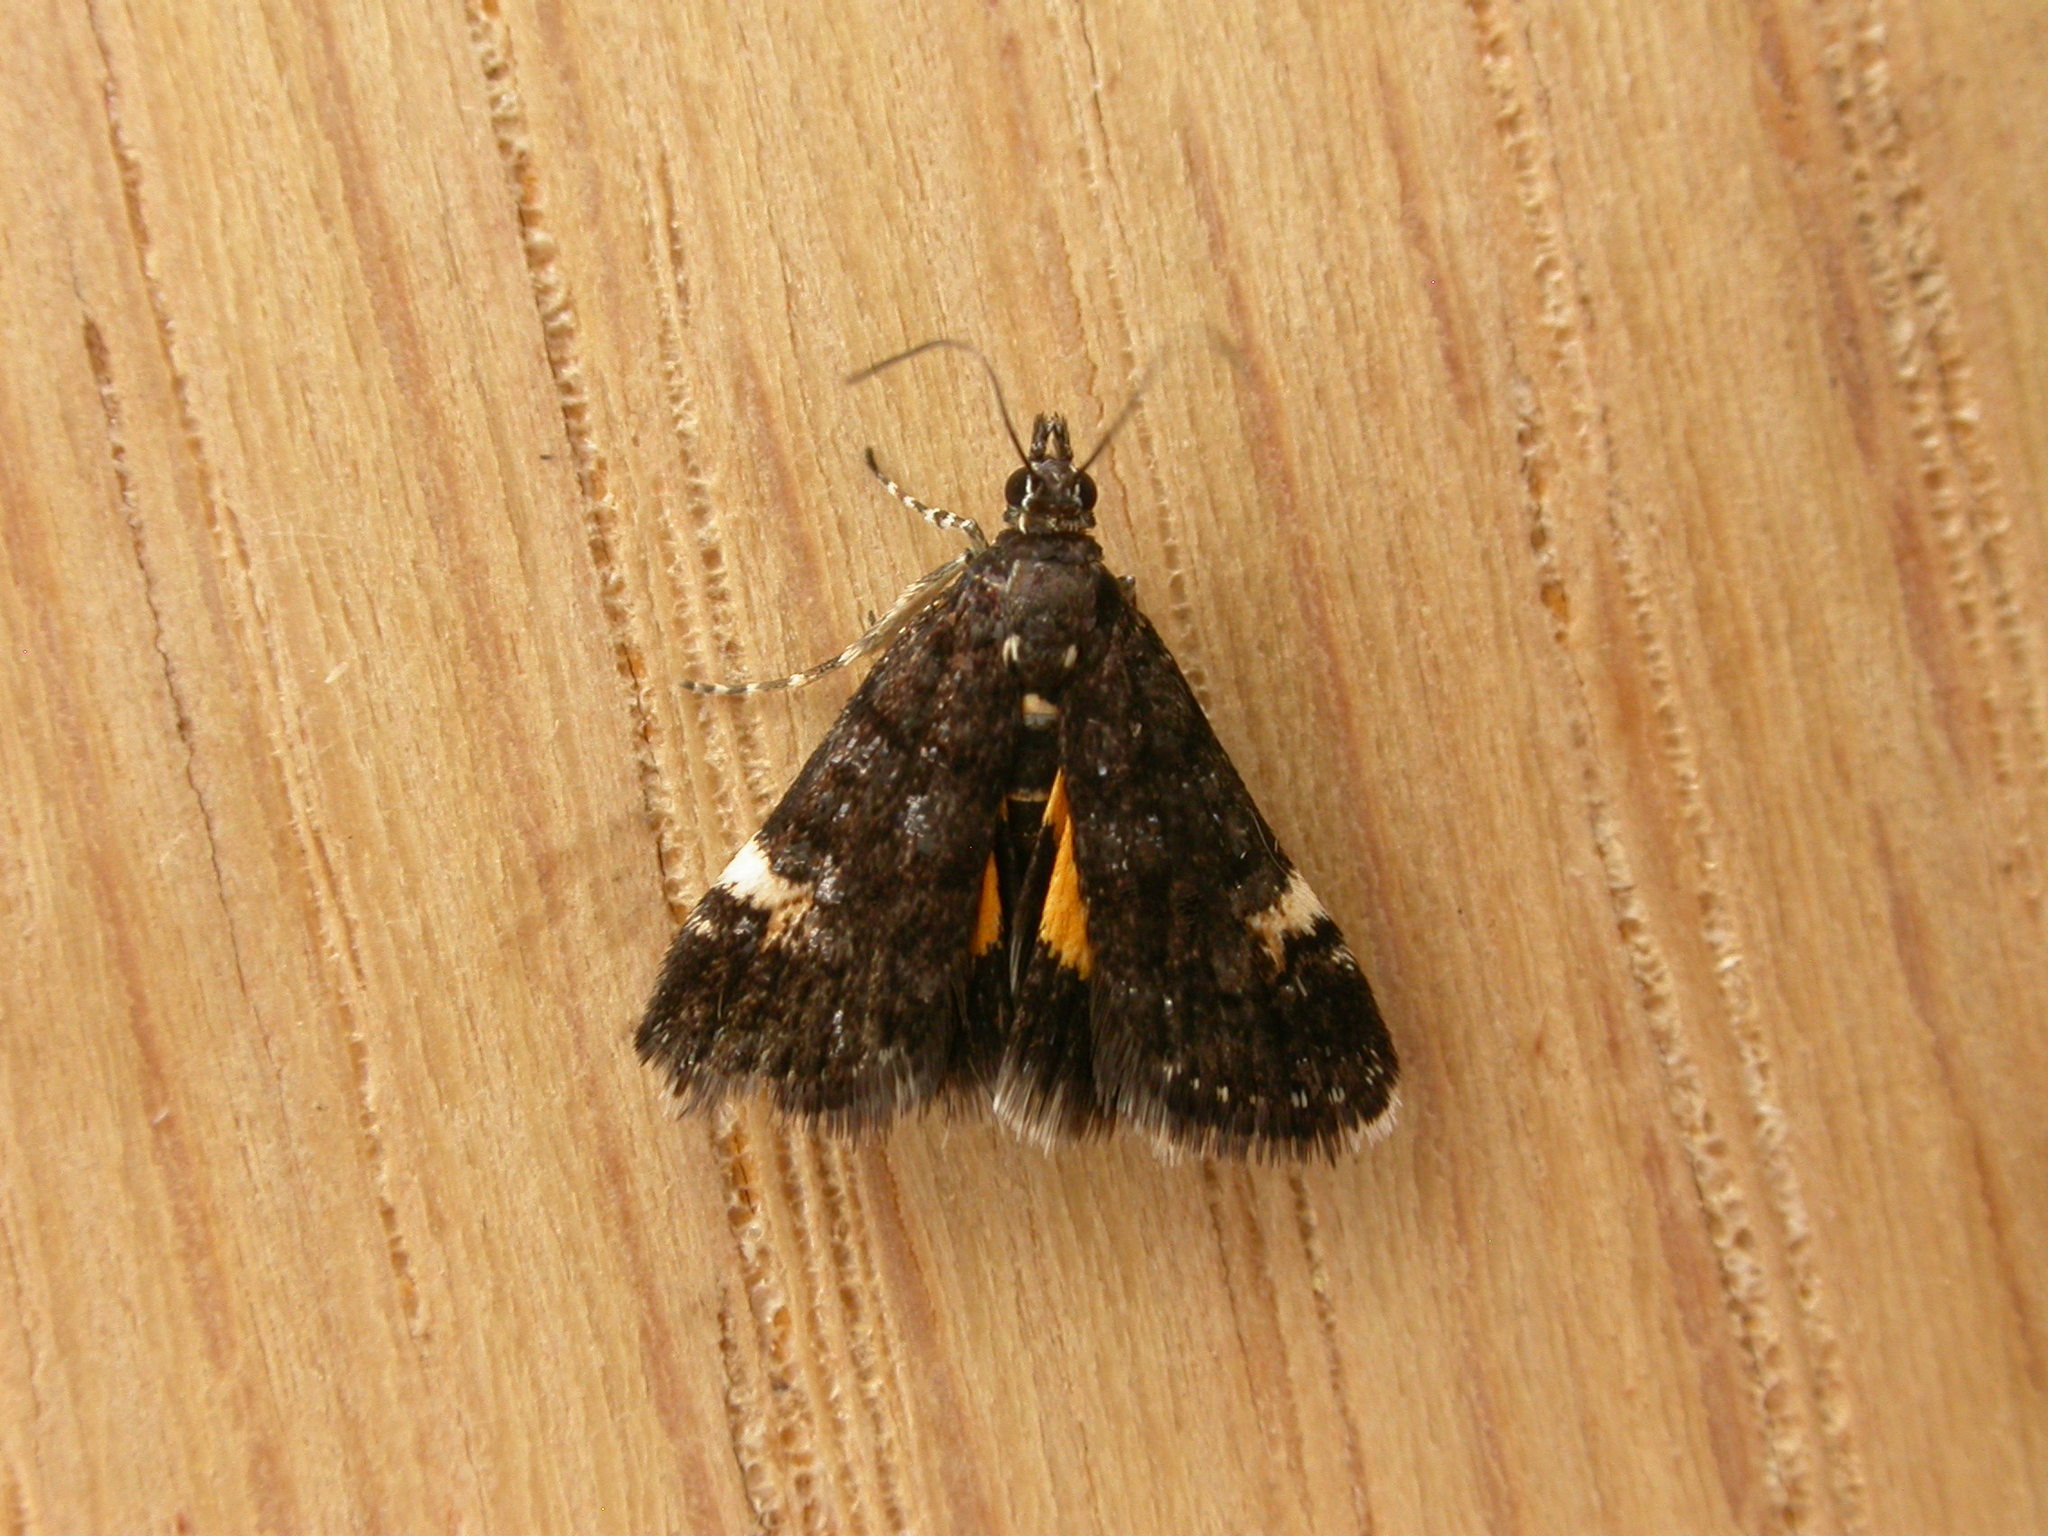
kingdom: Animalia
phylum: Arthropoda
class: Insecta
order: Lepidoptera
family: Crambidae
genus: Heliothela
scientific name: Heliothela ophideresana
